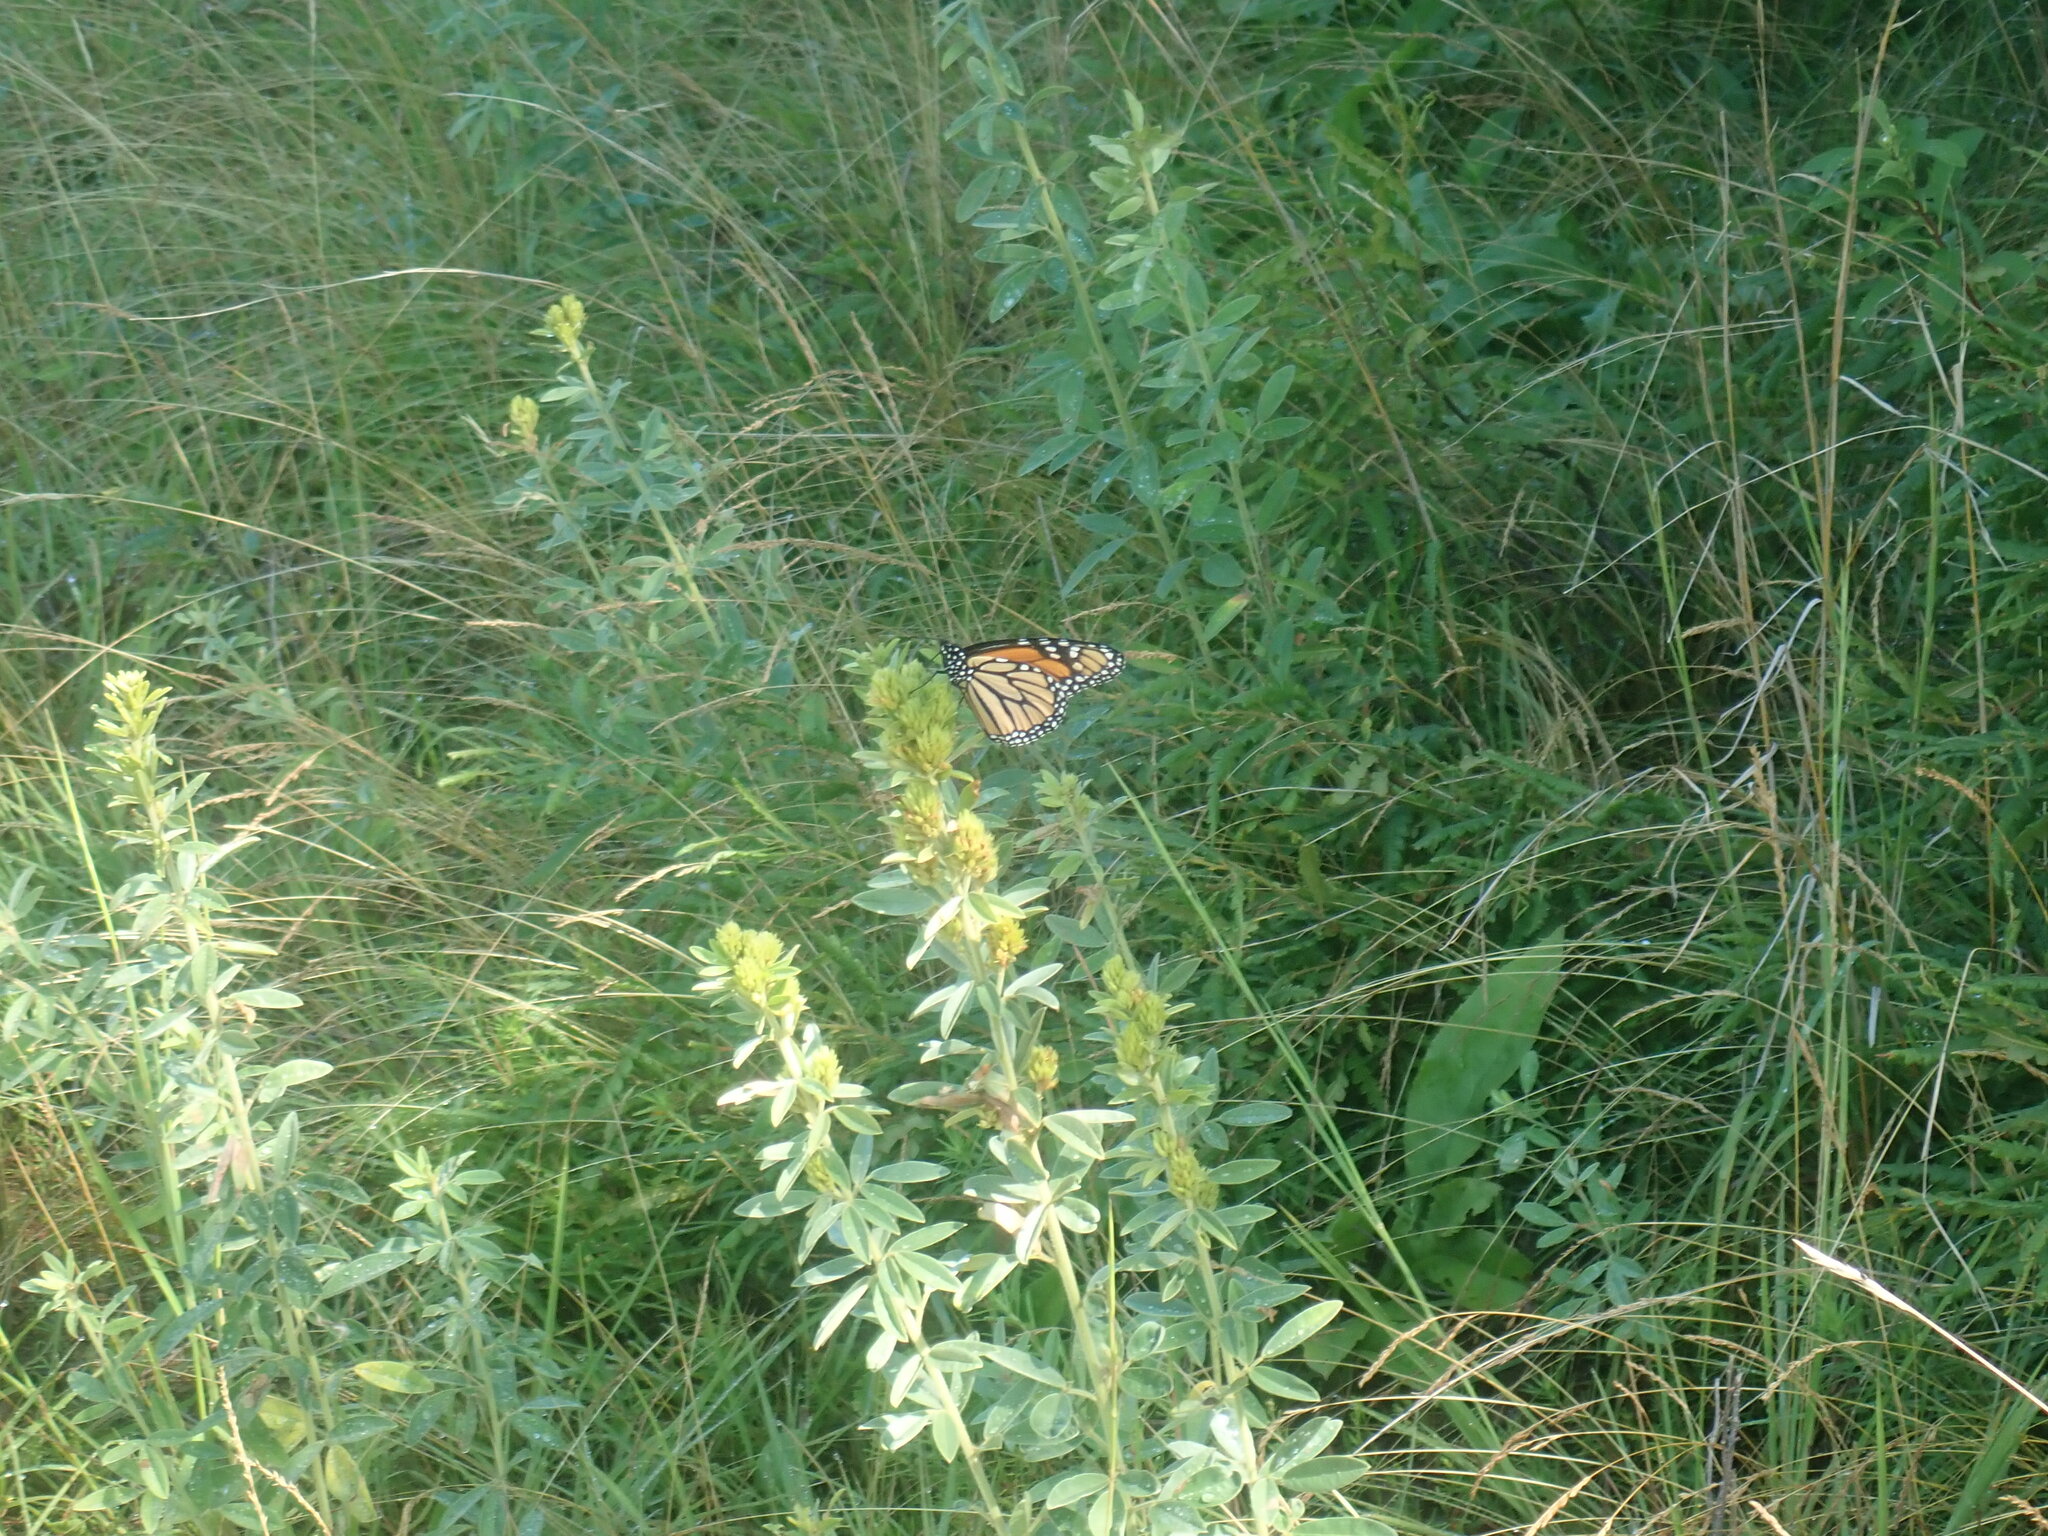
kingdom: Animalia
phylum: Arthropoda
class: Insecta
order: Lepidoptera
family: Nymphalidae
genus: Danaus
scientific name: Danaus plexippus
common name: Monarch
